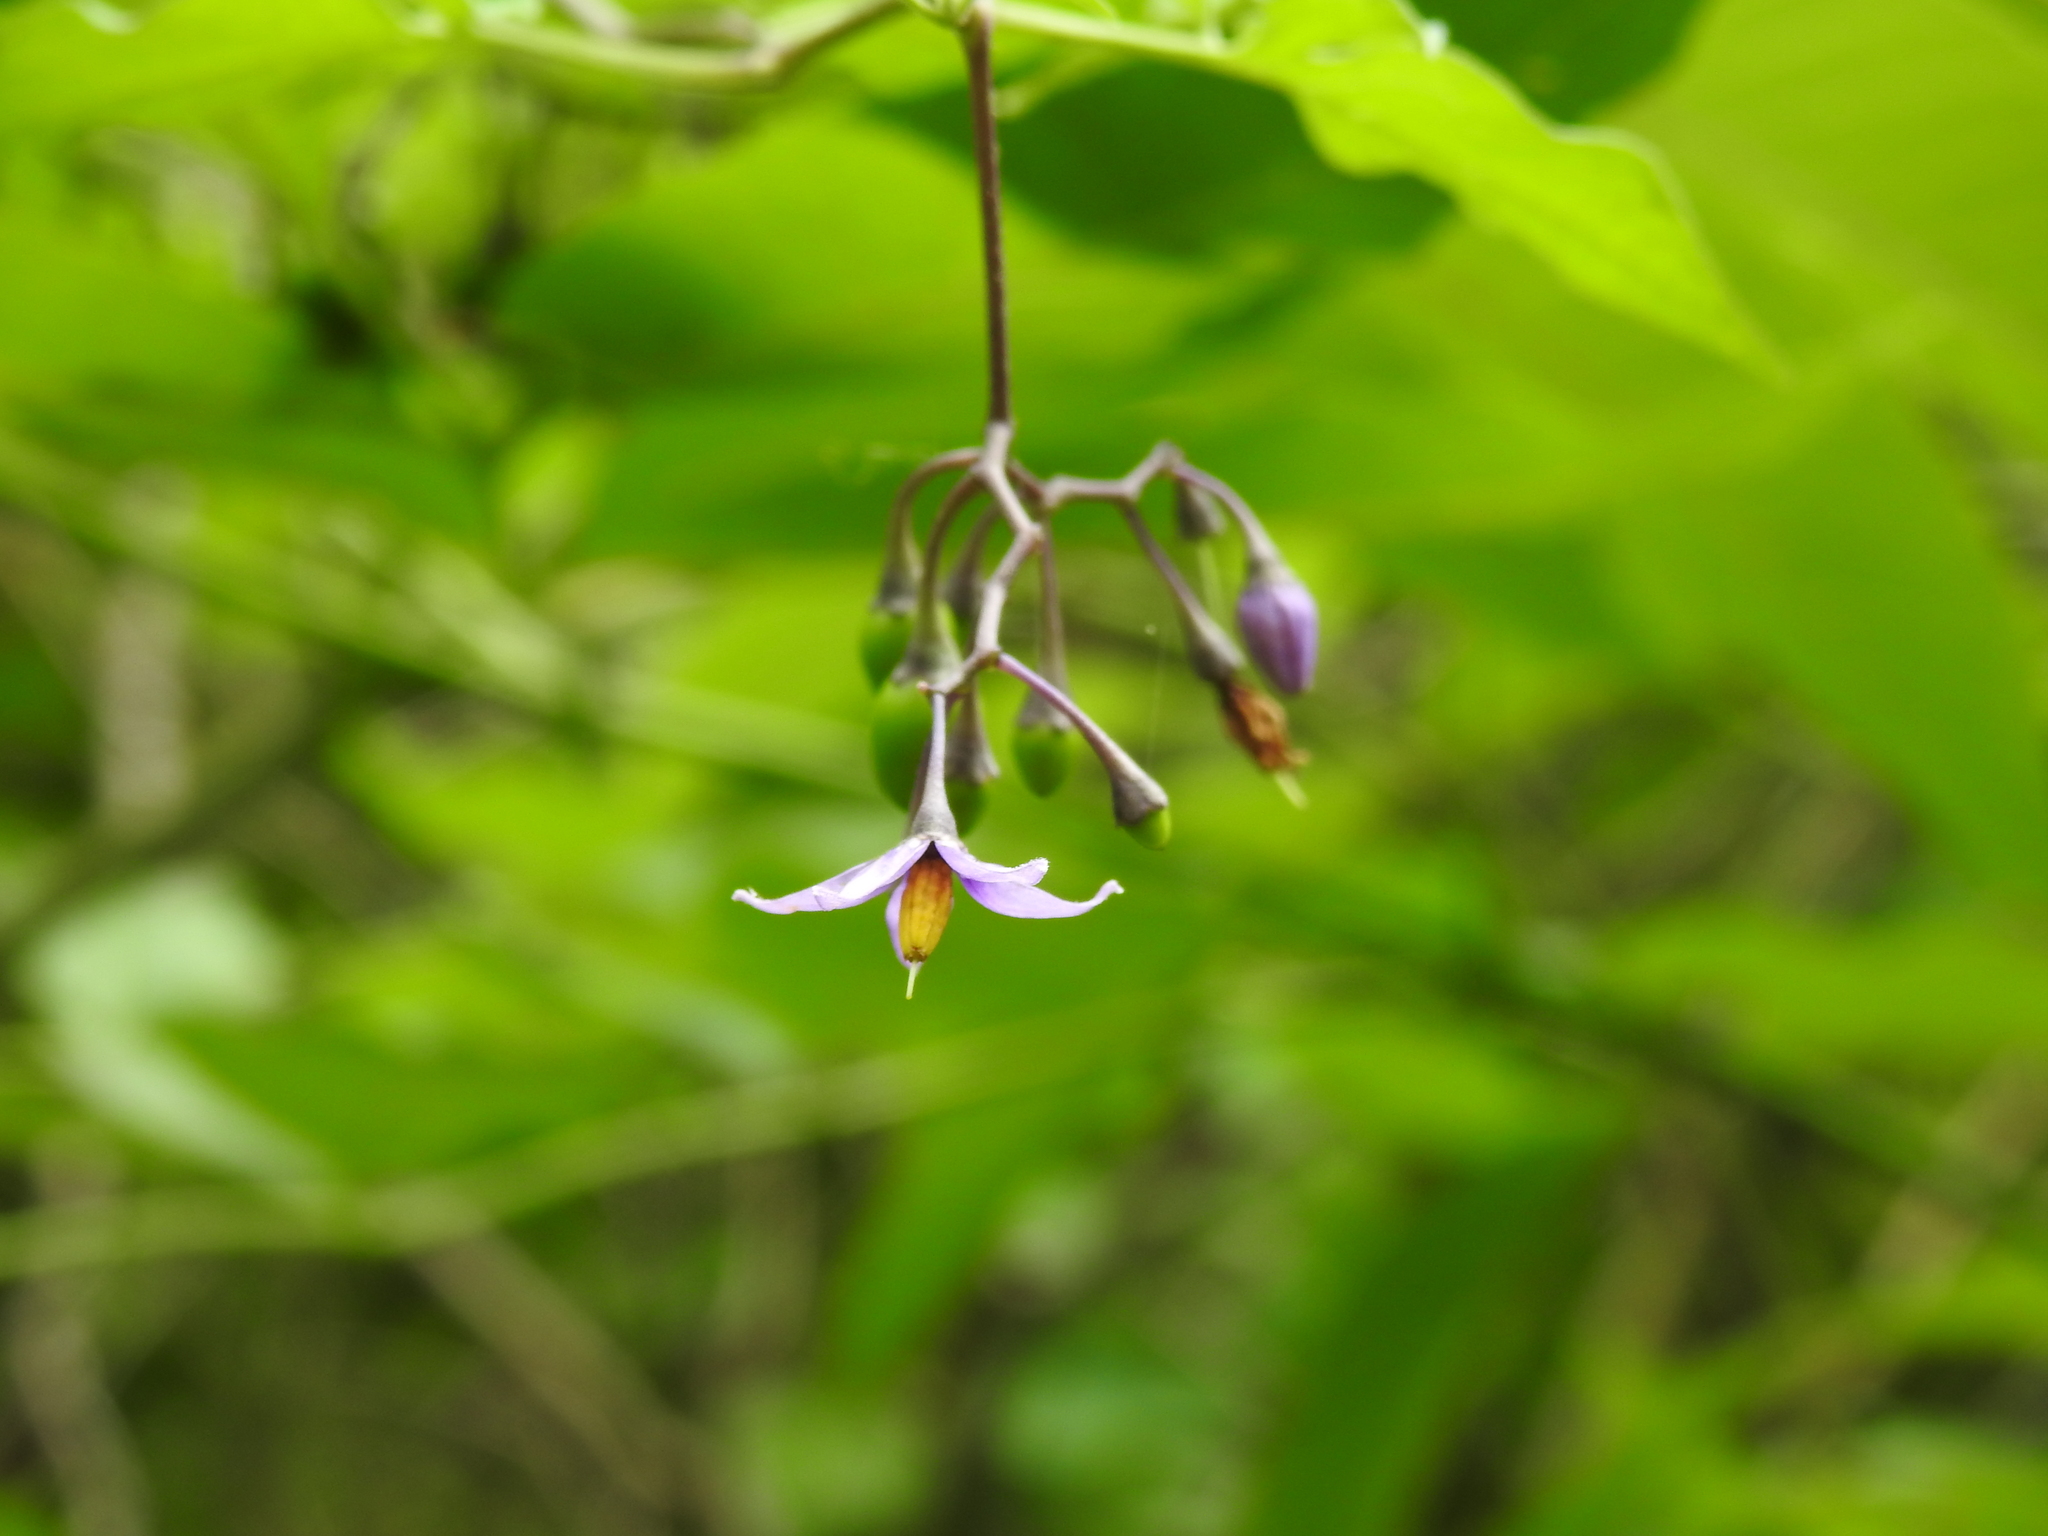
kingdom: Plantae
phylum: Tracheophyta
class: Magnoliopsida
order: Solanales
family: Solanaceae
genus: Solanum
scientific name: Solanum dulcamara
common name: Climbing nightshade
